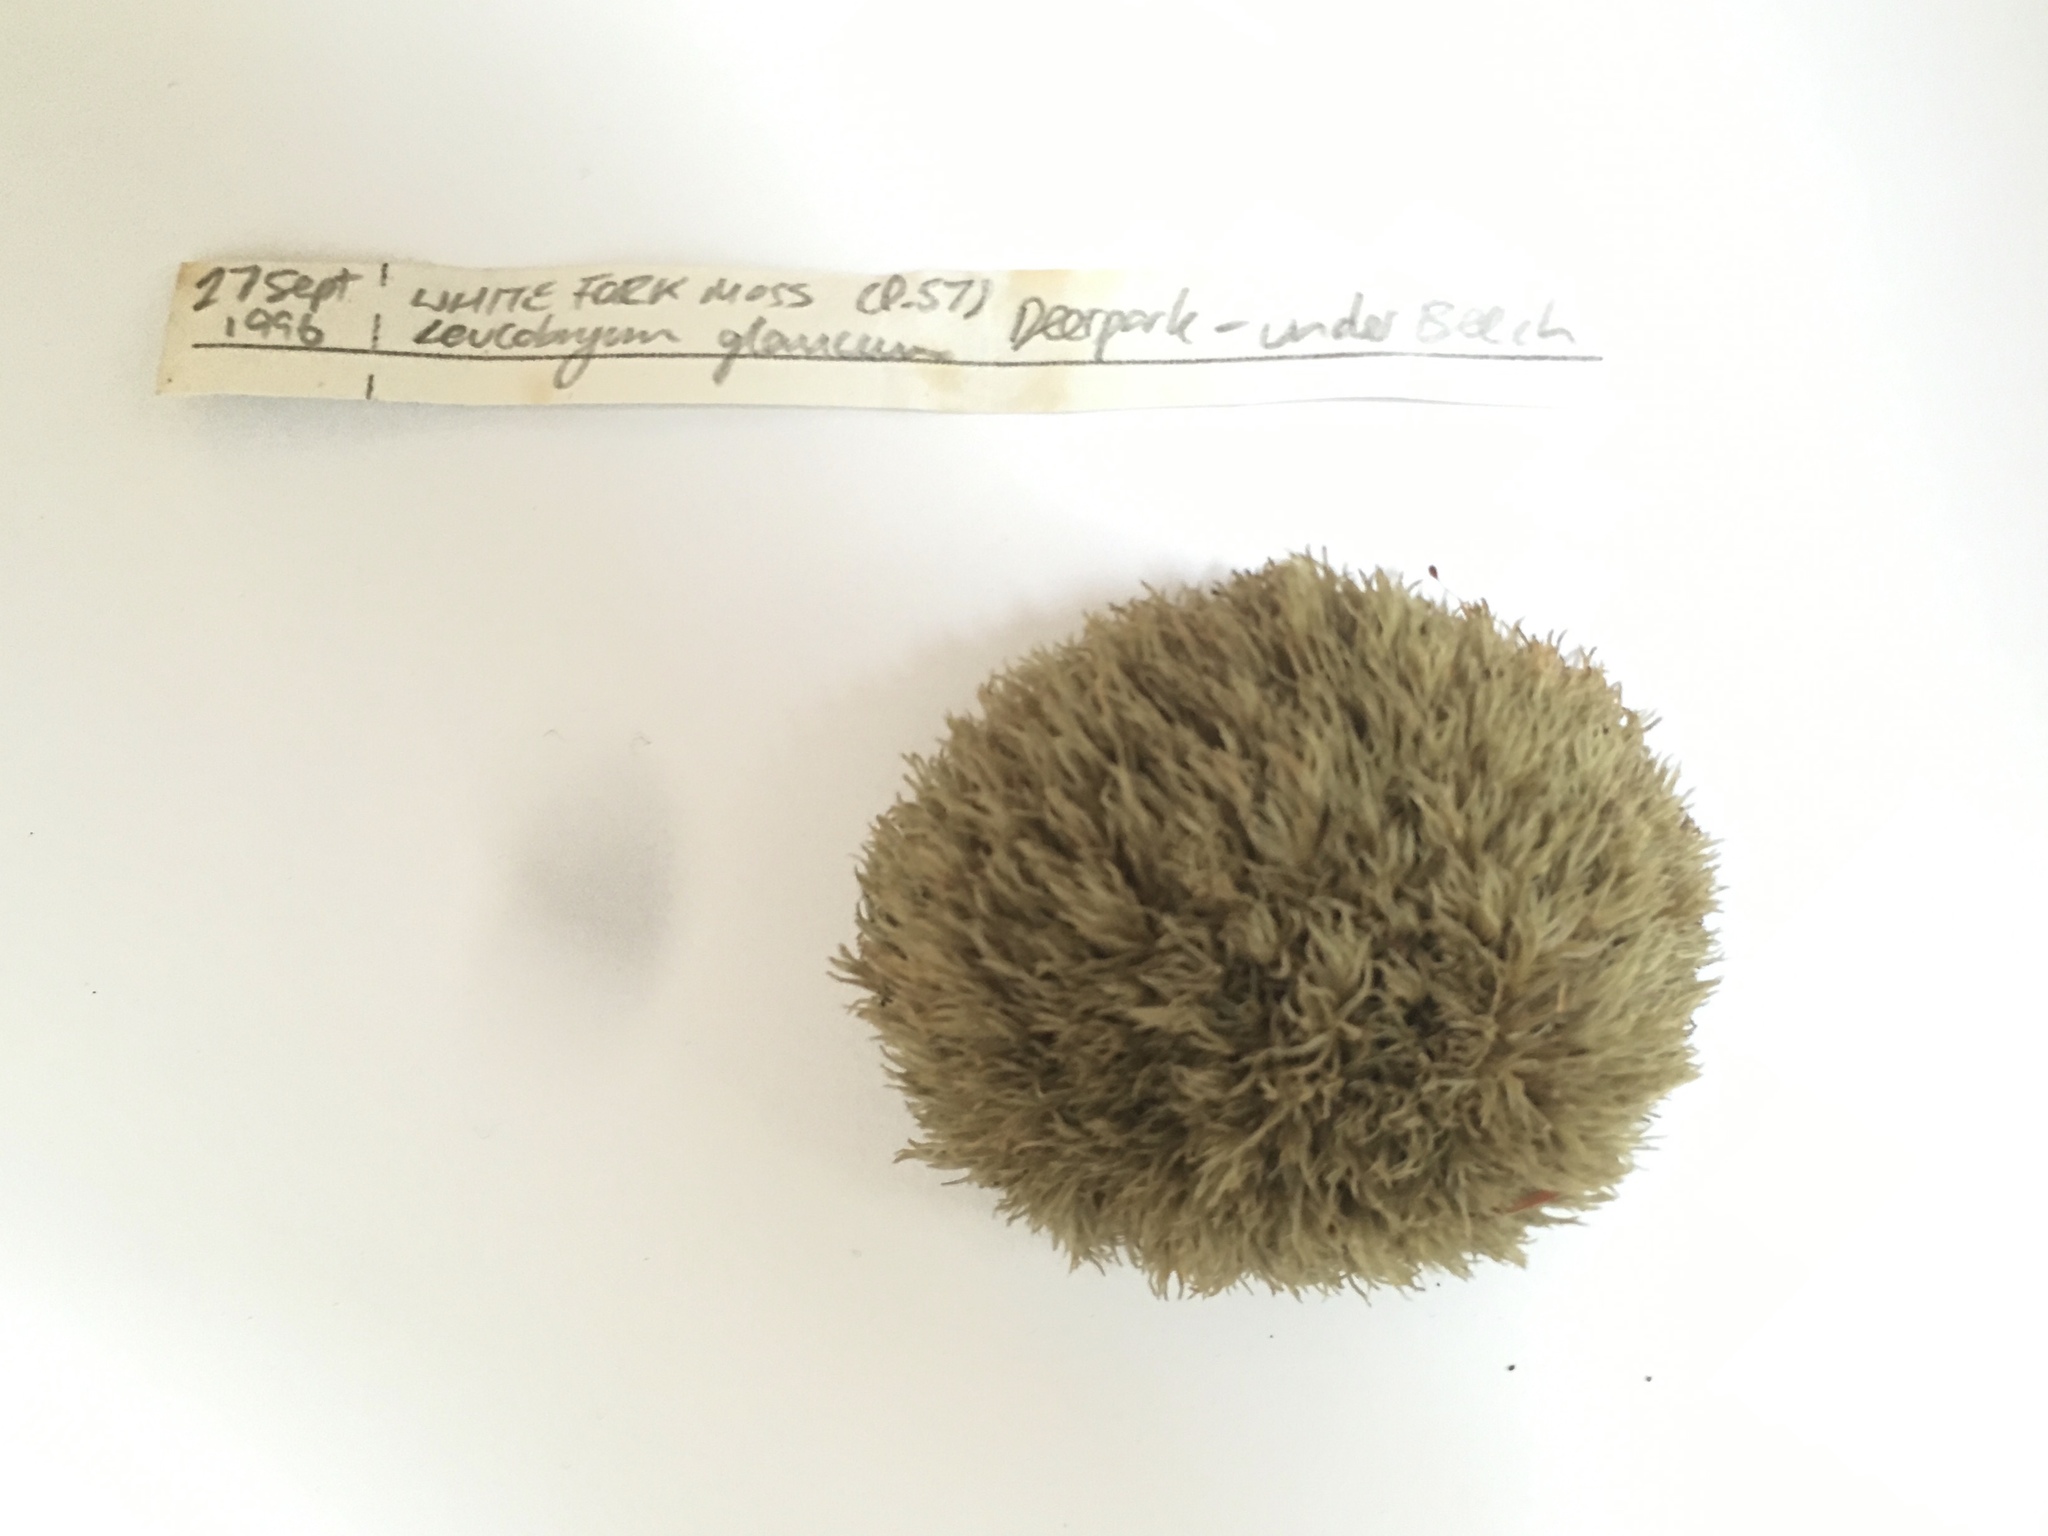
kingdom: Plantae
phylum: Bryophyta
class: Bryopsida
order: Dicranales
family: Leucobryaceae
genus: Leucobryum
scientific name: Leucobryum glaucum
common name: Large white-moss
